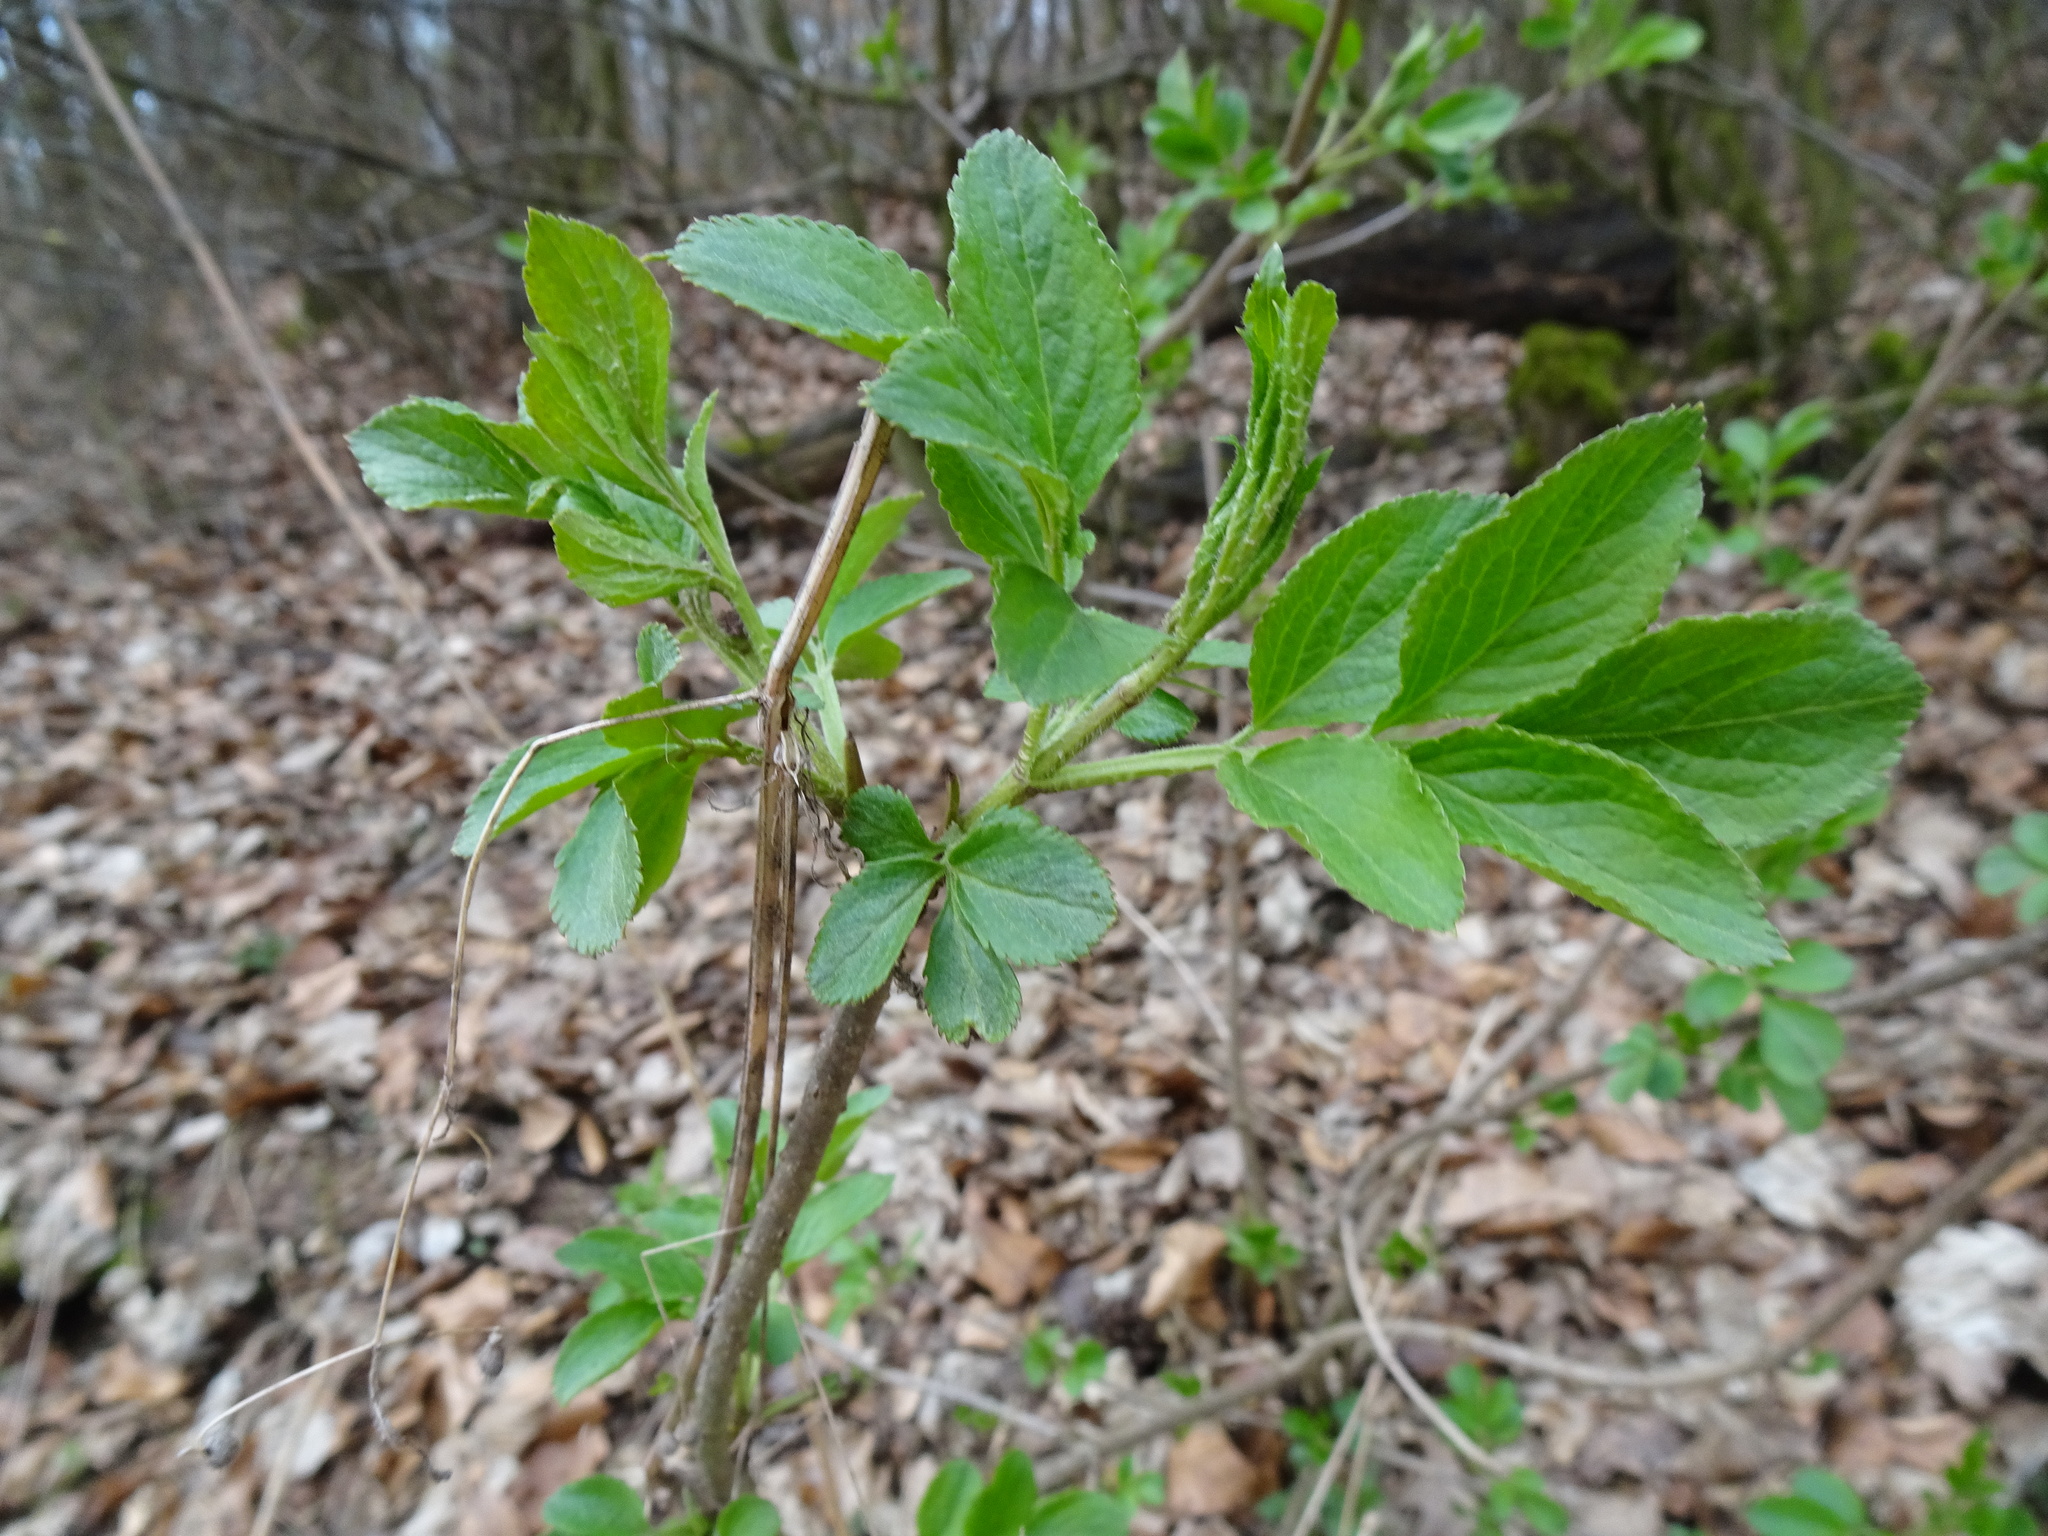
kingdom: Plantae
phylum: Tracheophyta
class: Magnoliopsida
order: Dipsacales
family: Viburnaceae
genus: Sambucus
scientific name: Sambucus nigra
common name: Elder
